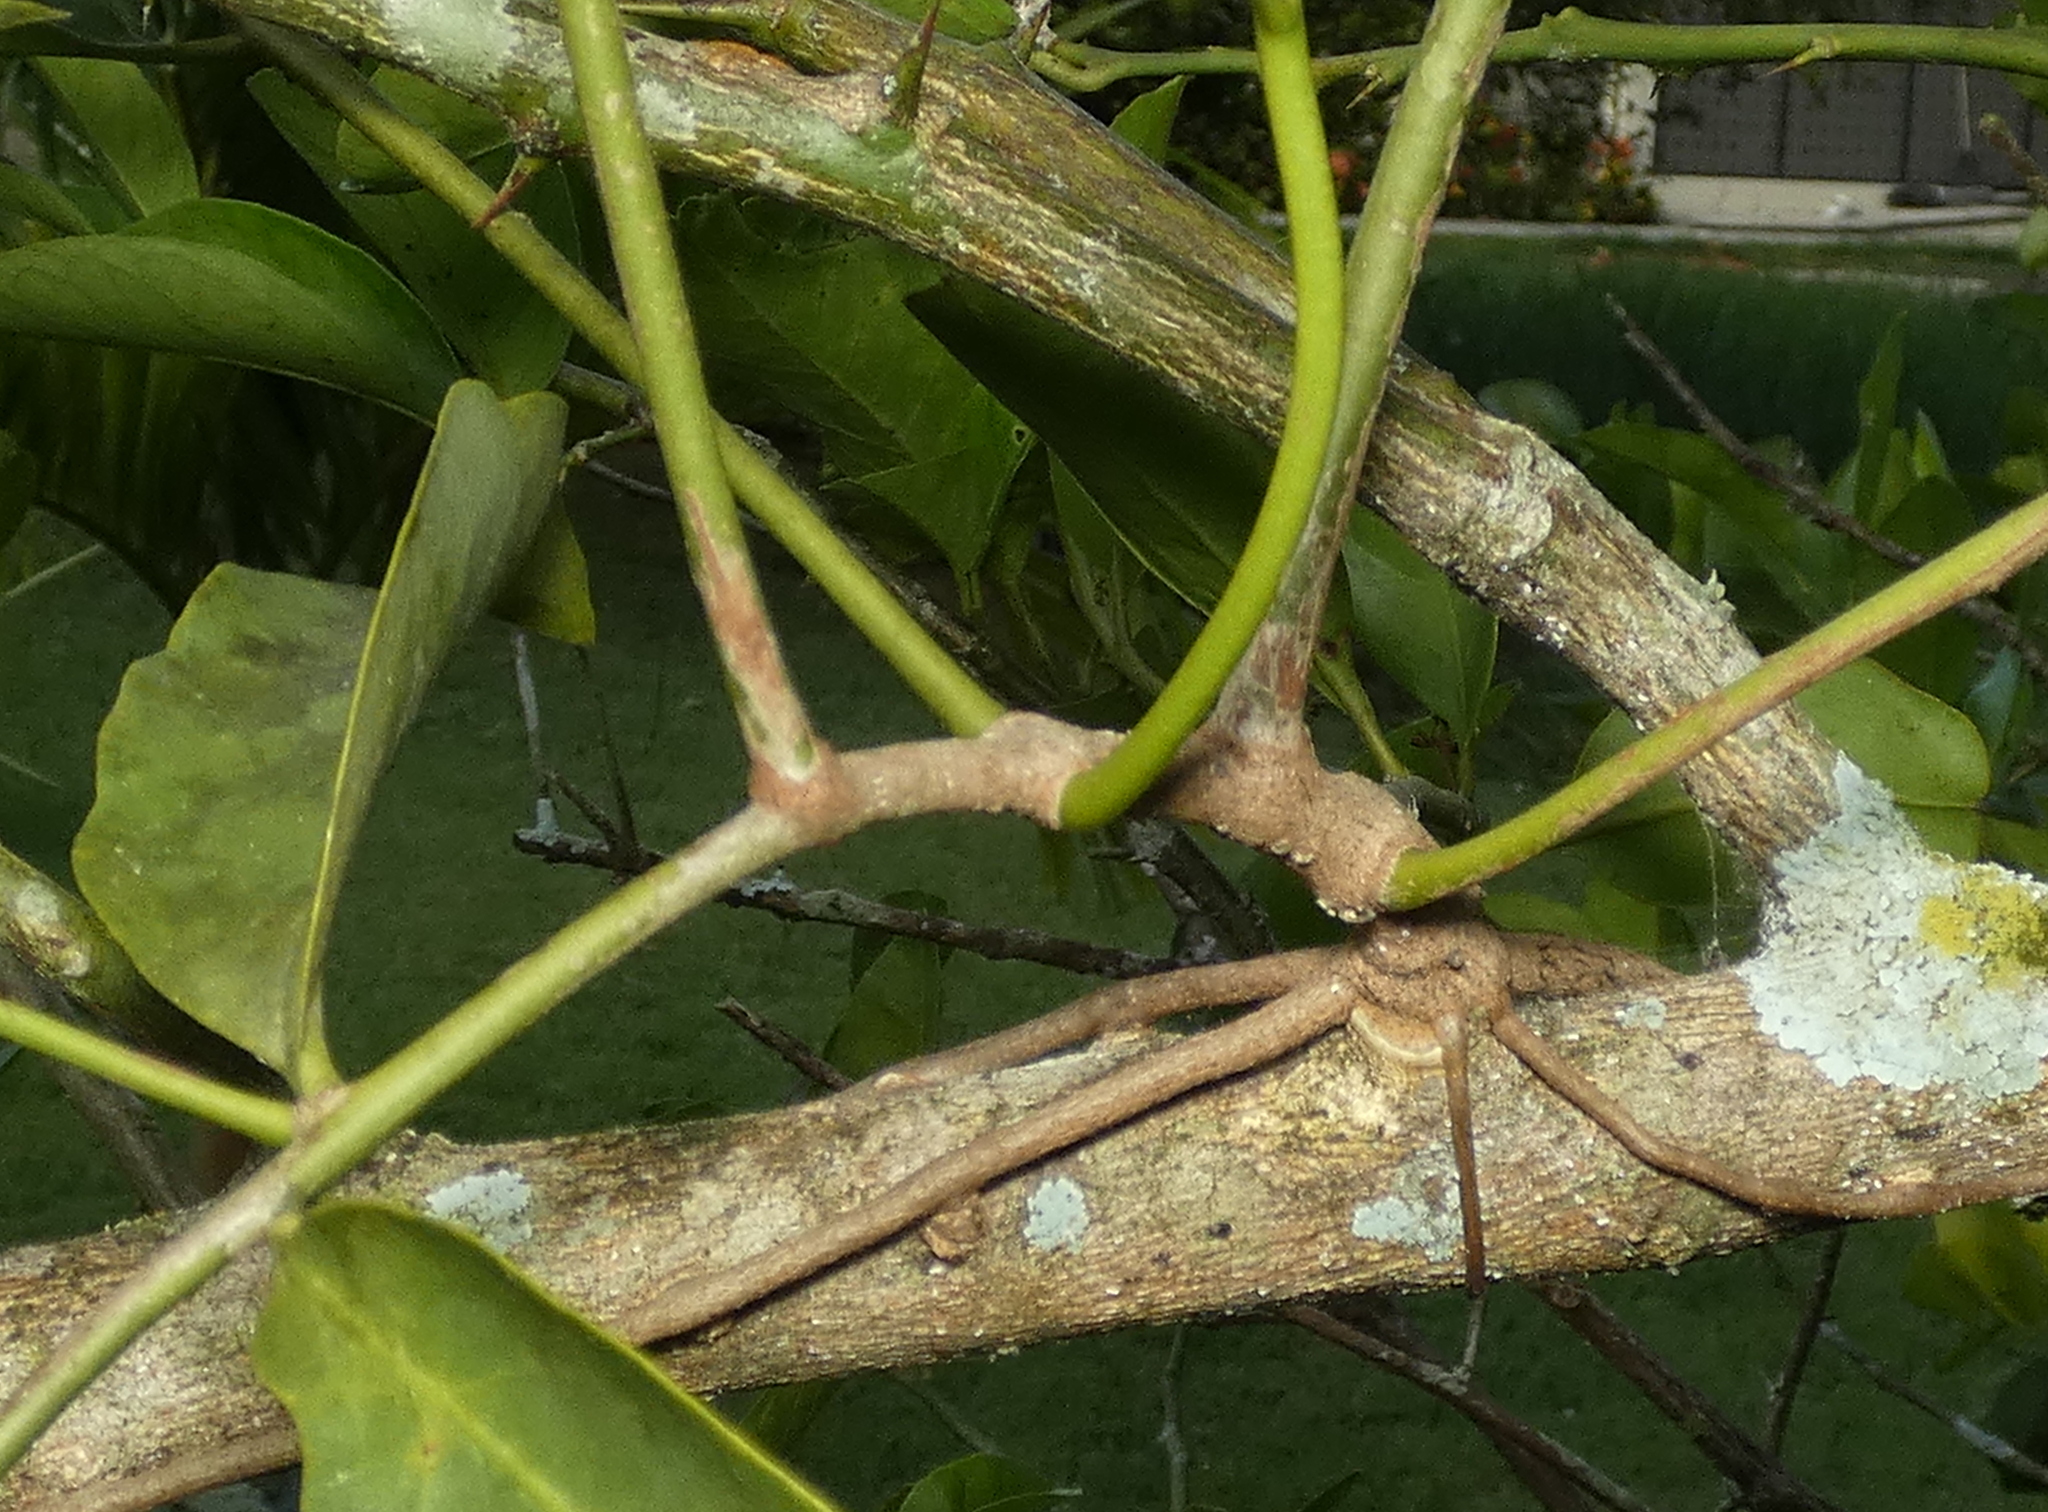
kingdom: Plantae
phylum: Tracheophyta
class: Magnoliopsida
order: Santalales
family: Loranthaceae
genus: Passovia
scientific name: Passovia pyrifolia
